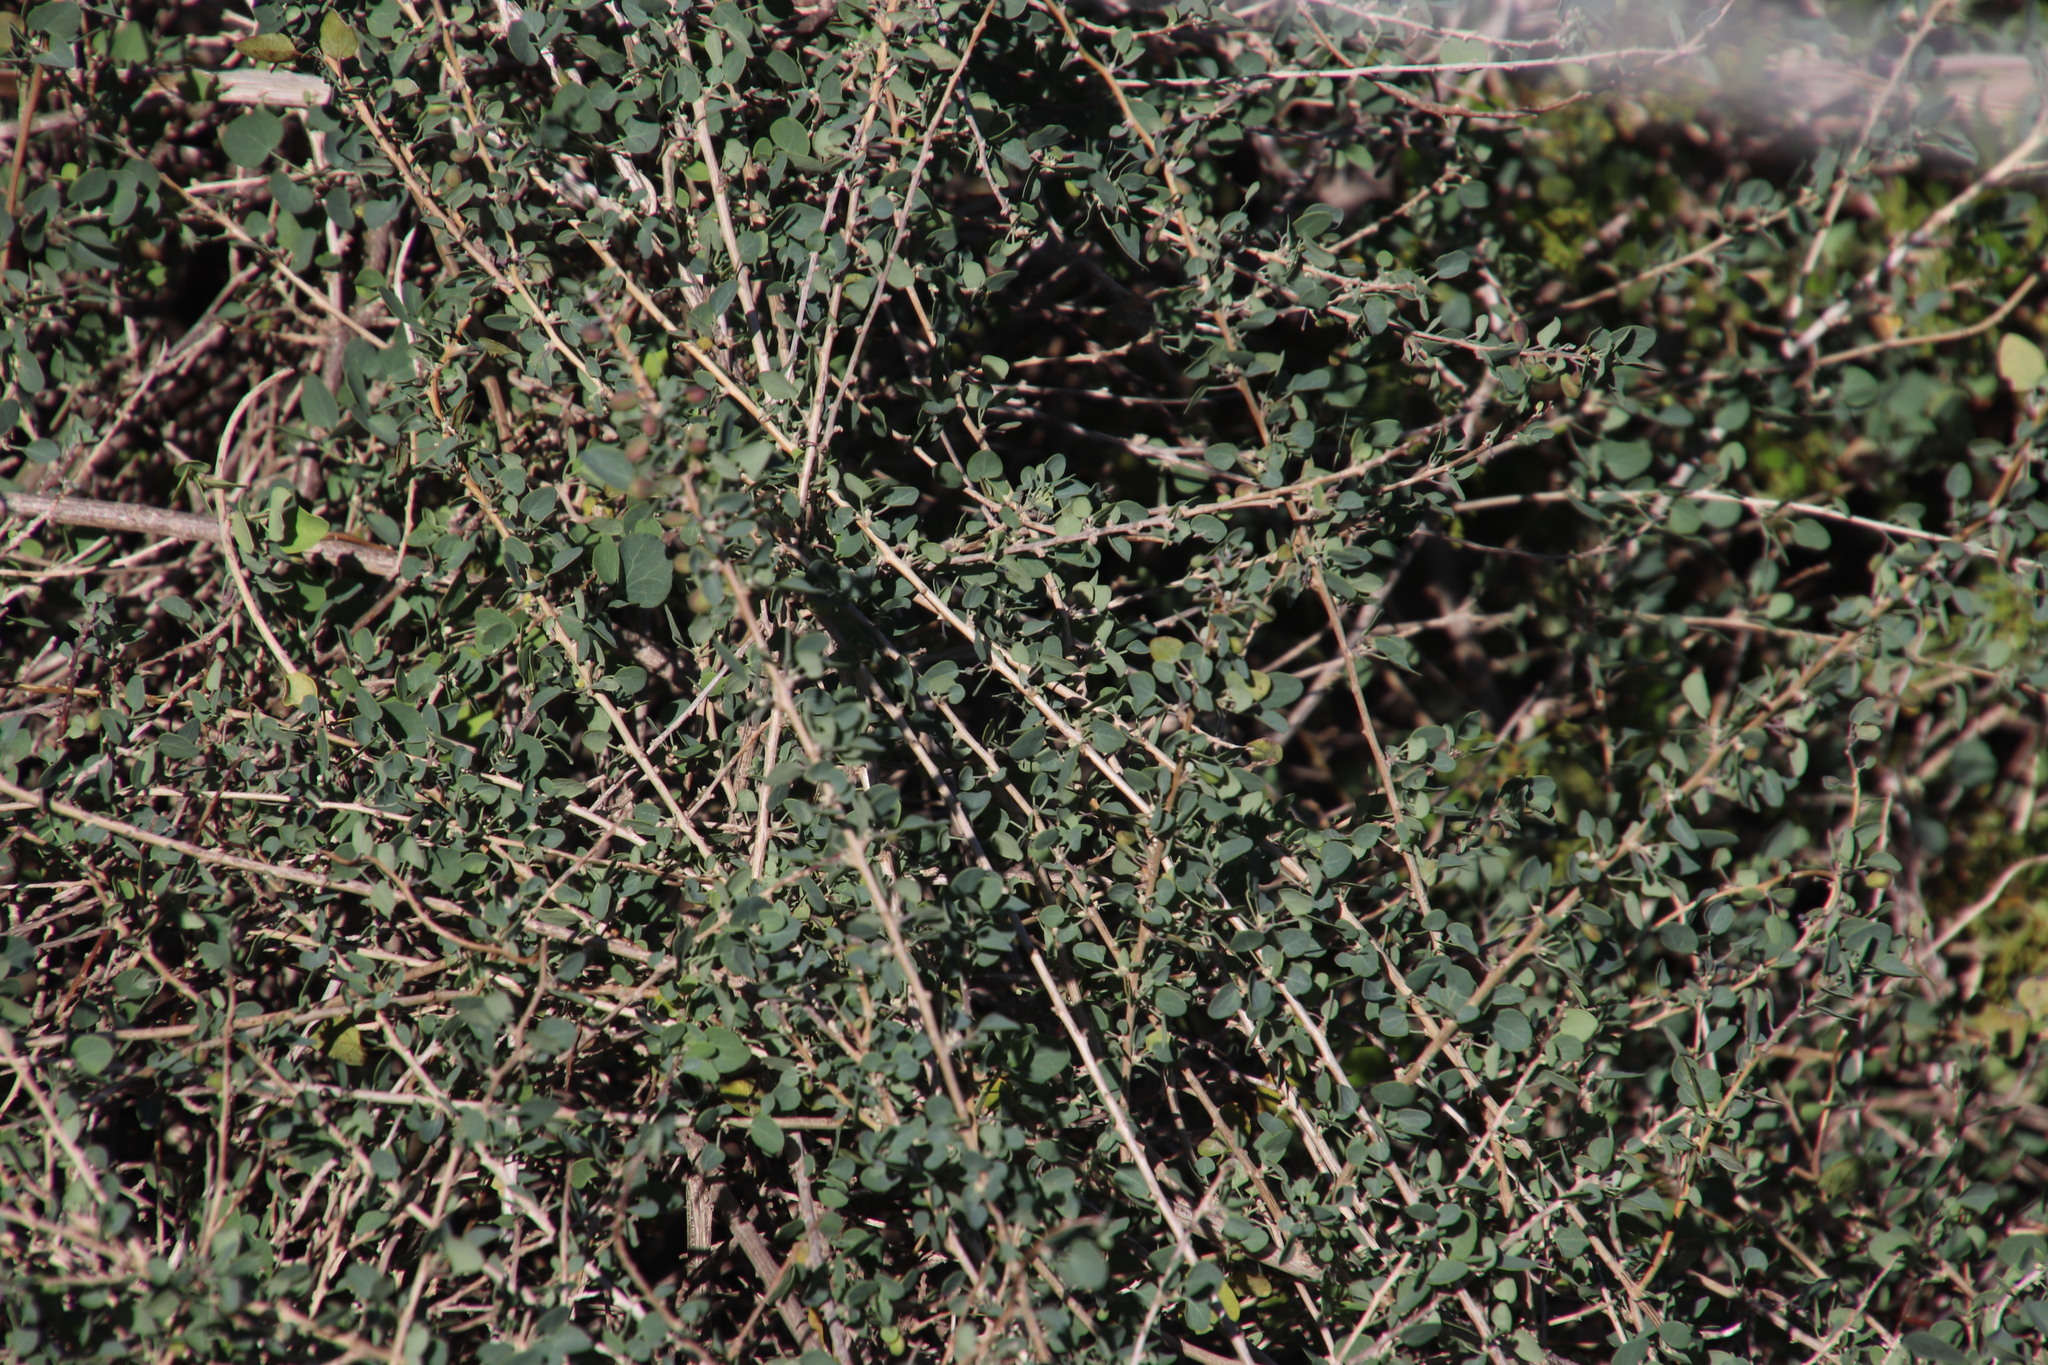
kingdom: Plantae
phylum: Tracheophyta
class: Magnoliopsida
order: Ranunculales
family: Menispermaceae
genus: Cissampelos
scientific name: Cissampelos capensis
